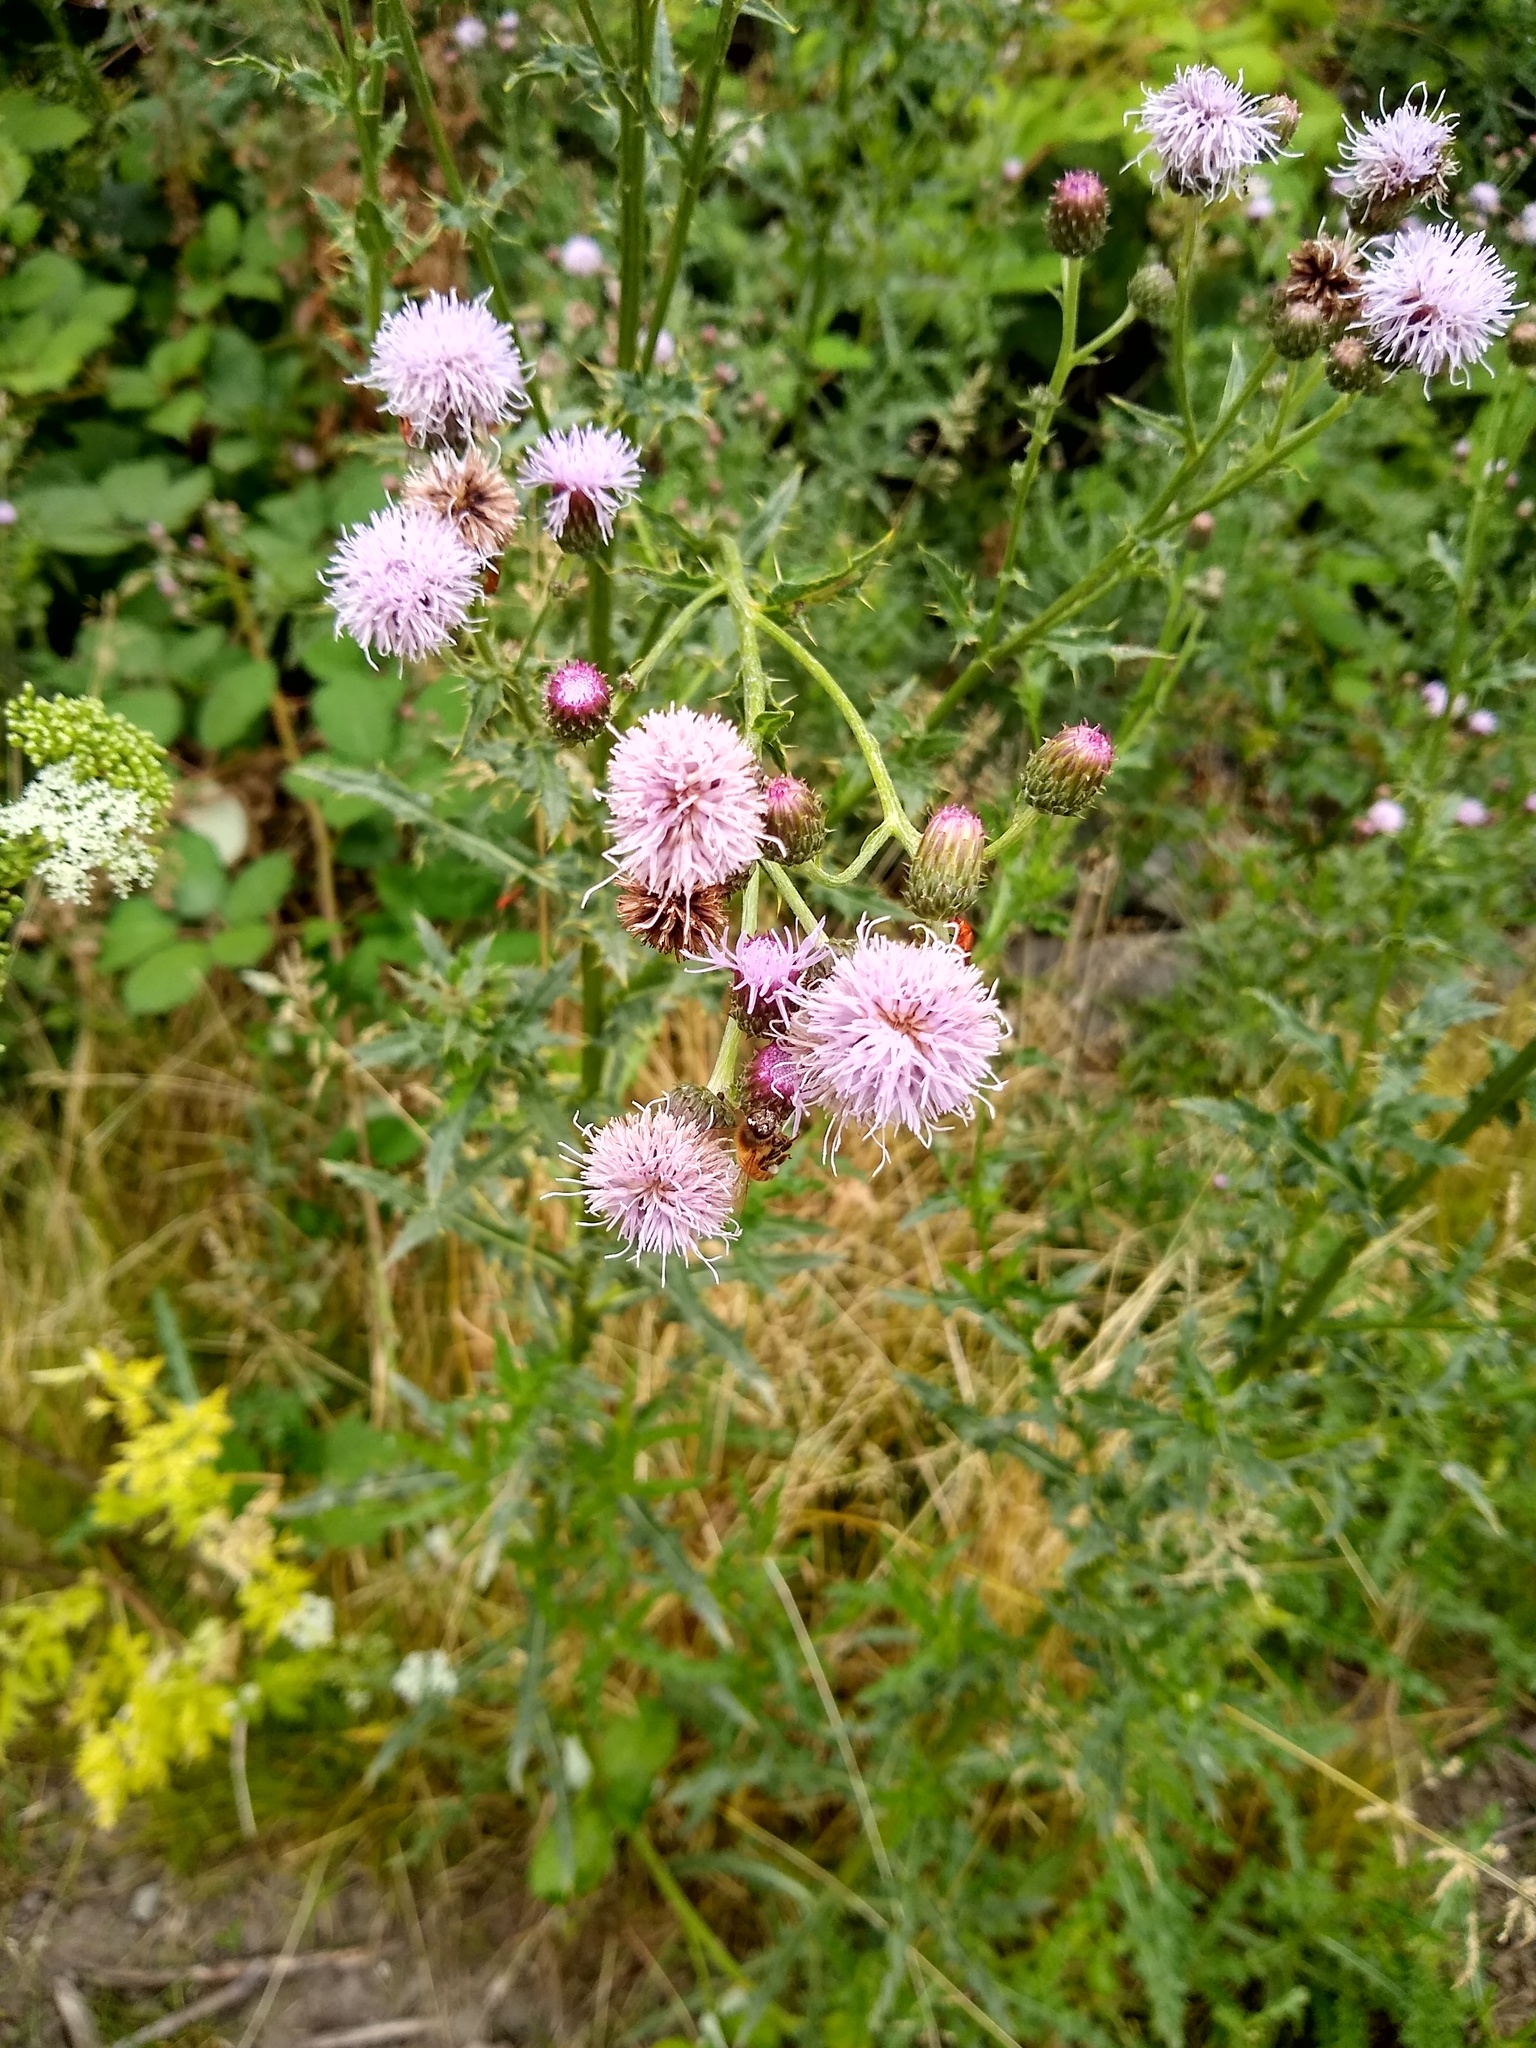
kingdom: Plantae
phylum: Tracheophyta
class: Magnoliopsida
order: Asterales
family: Asteraceae
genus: Cirsium
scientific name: Cirsium arvense
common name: Creeping thistle
